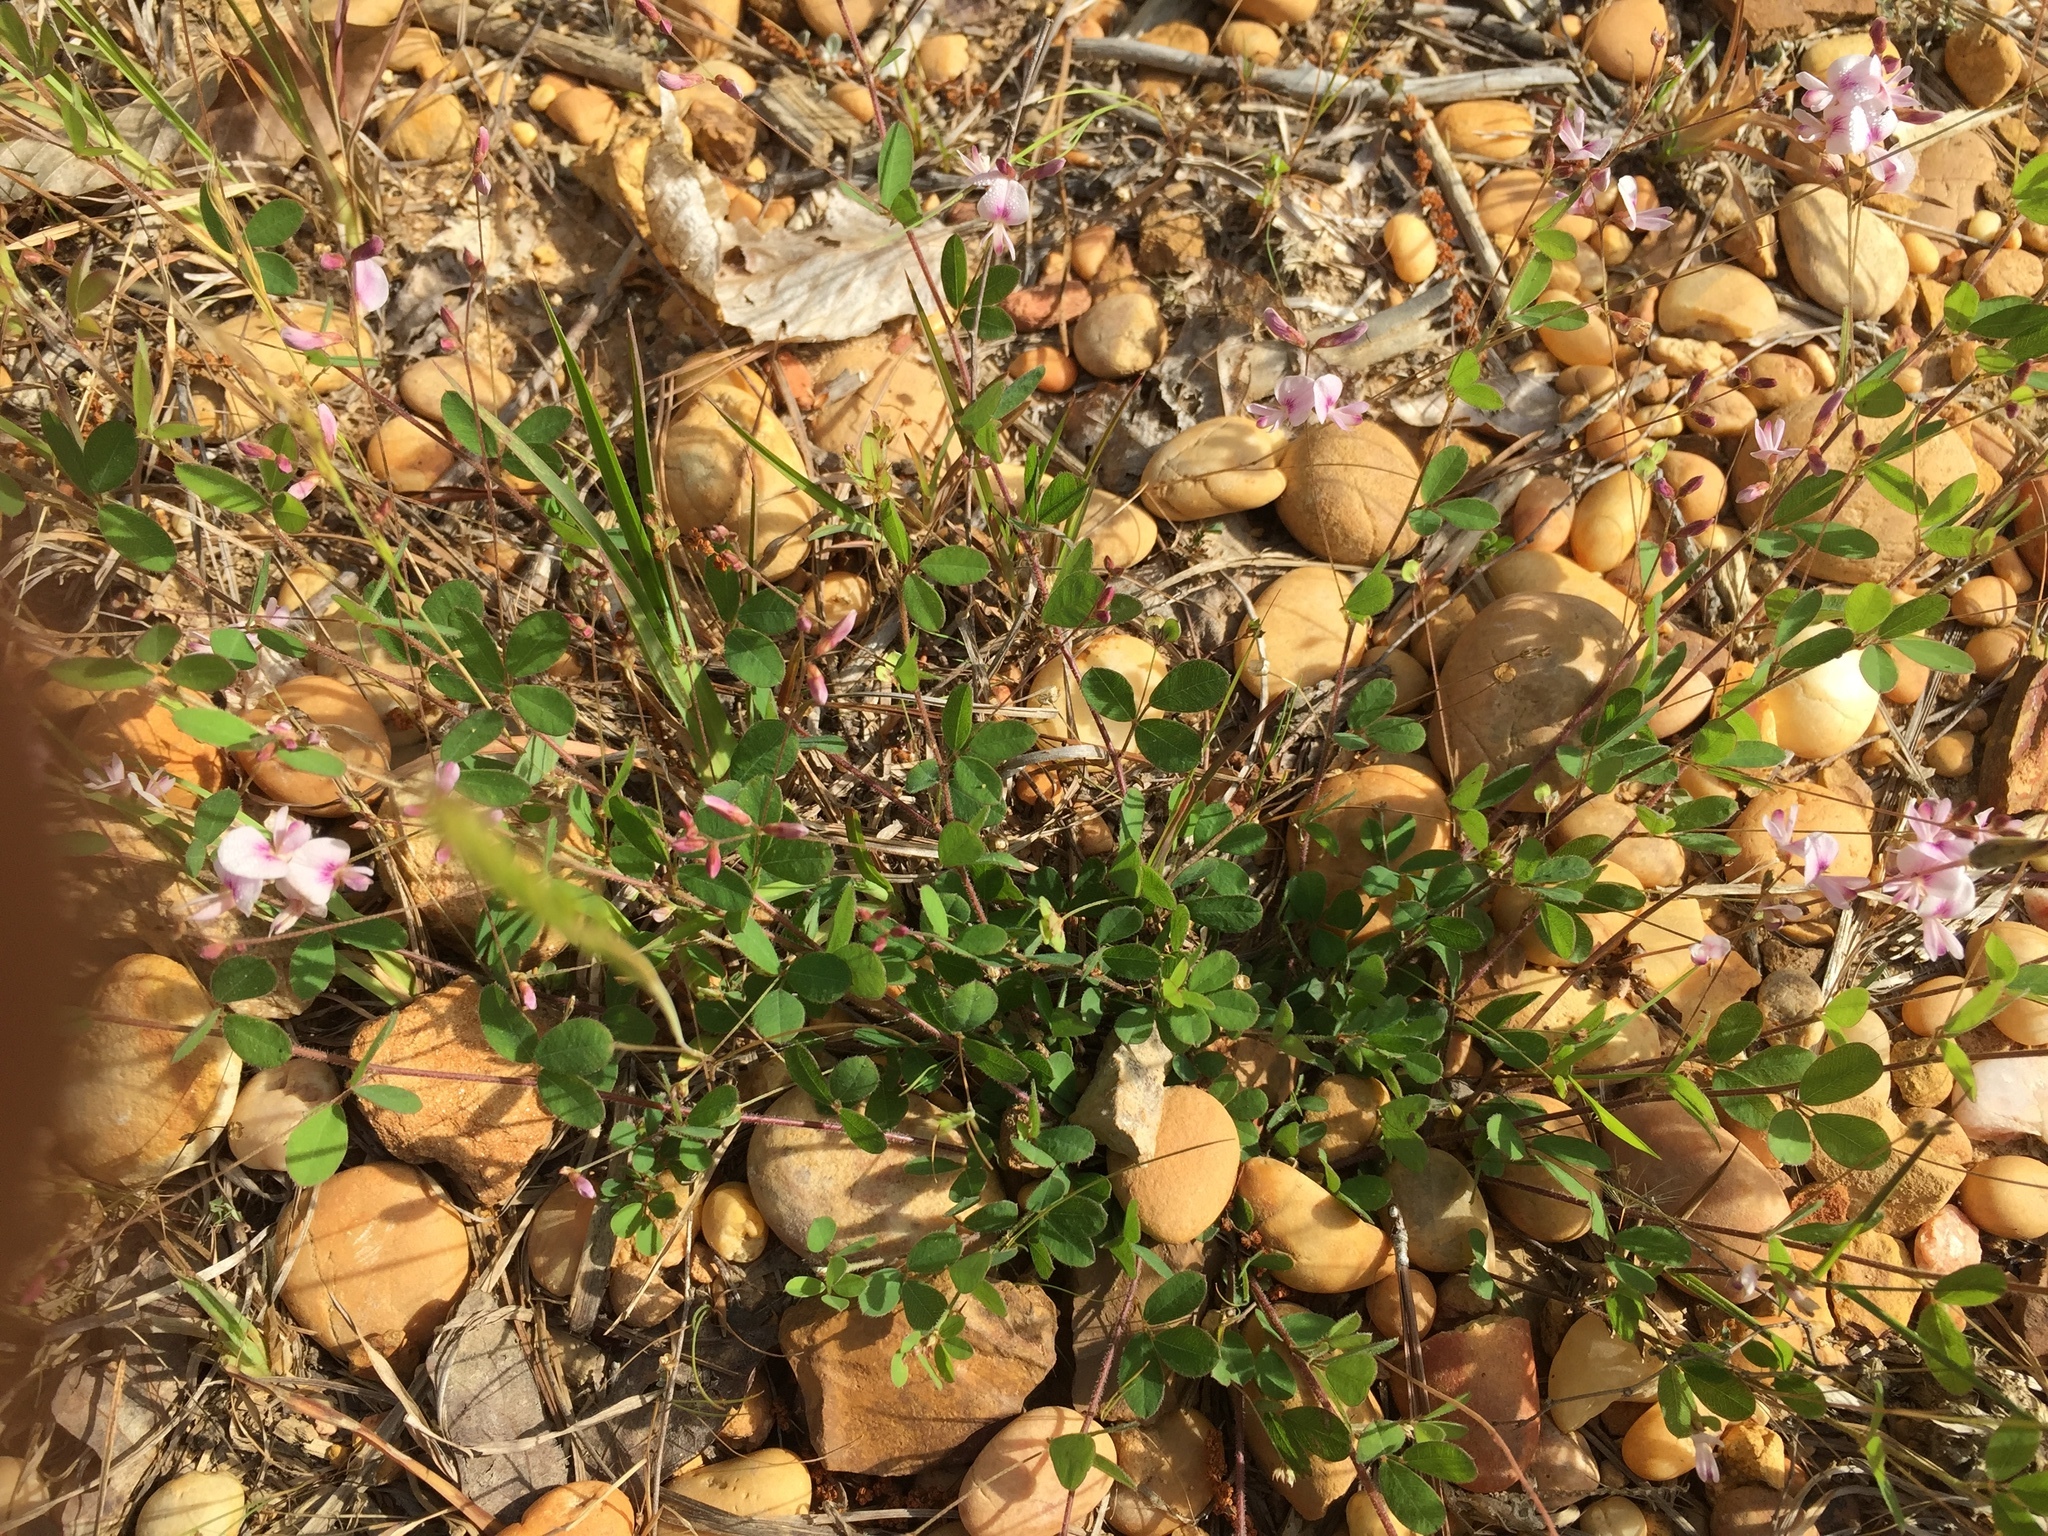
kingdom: Plantae
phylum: Tracheophyta
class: Magnoliopsida
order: Fabales
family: Fabaceae
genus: Lespedeza
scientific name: Lespedeza repens
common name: Creeping bush-clover
